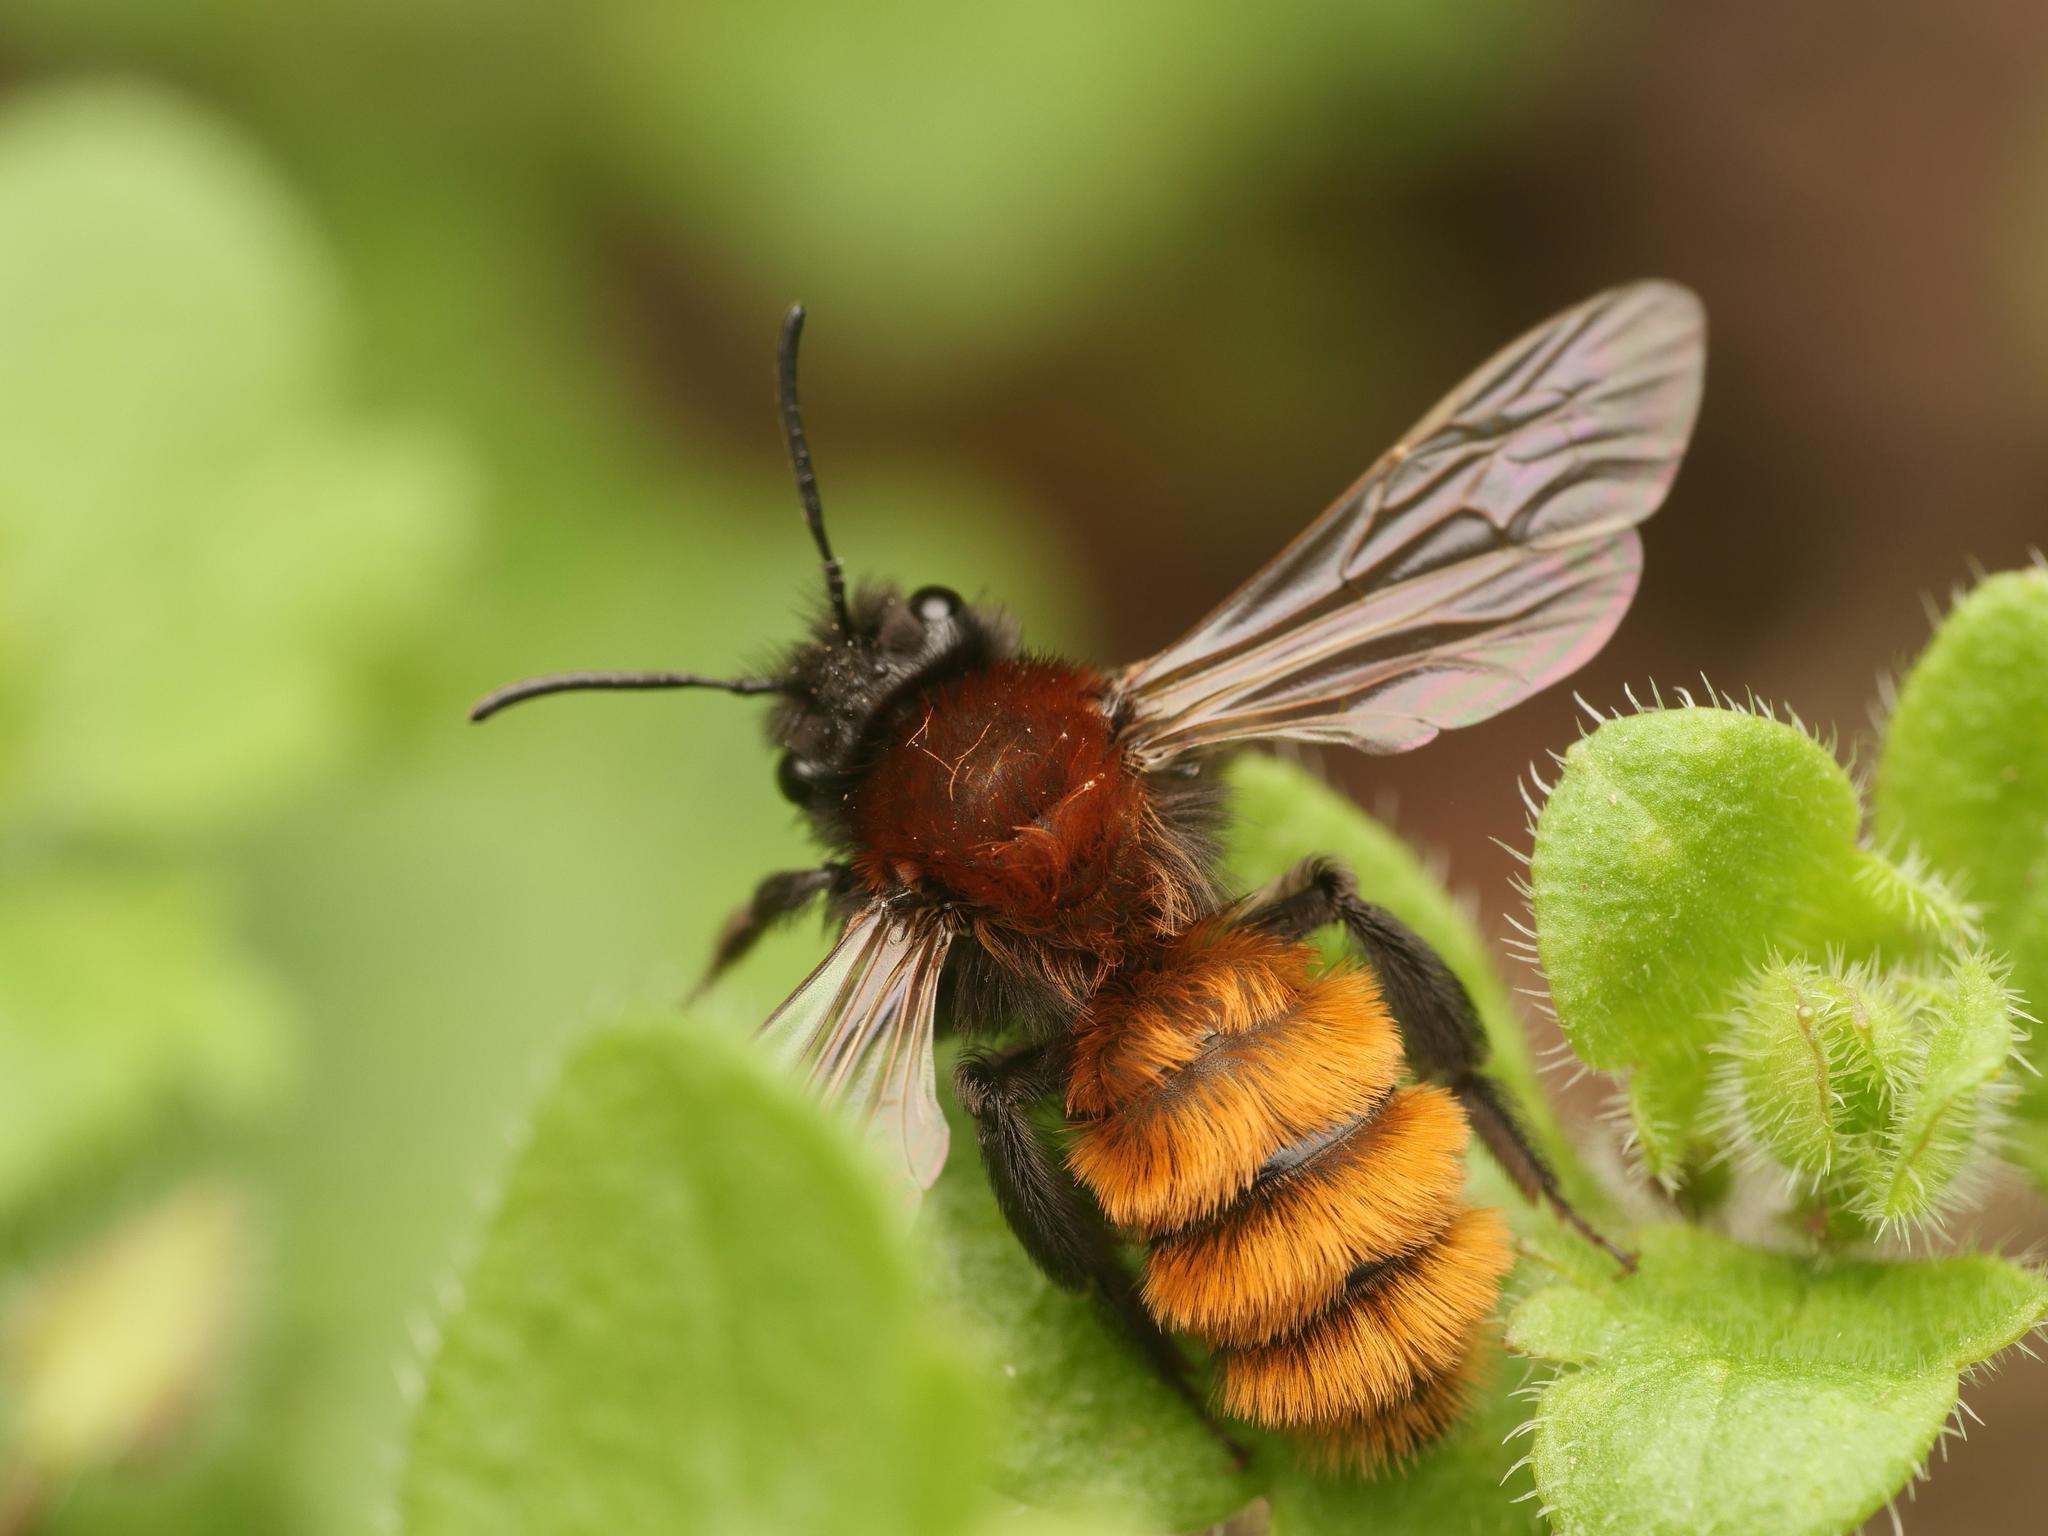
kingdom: Animalia
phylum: Arthropoda
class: Insecta
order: Hymenoptera
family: Andrenidae
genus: Andrena
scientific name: Andrena fulva
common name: Tawny mining bee
